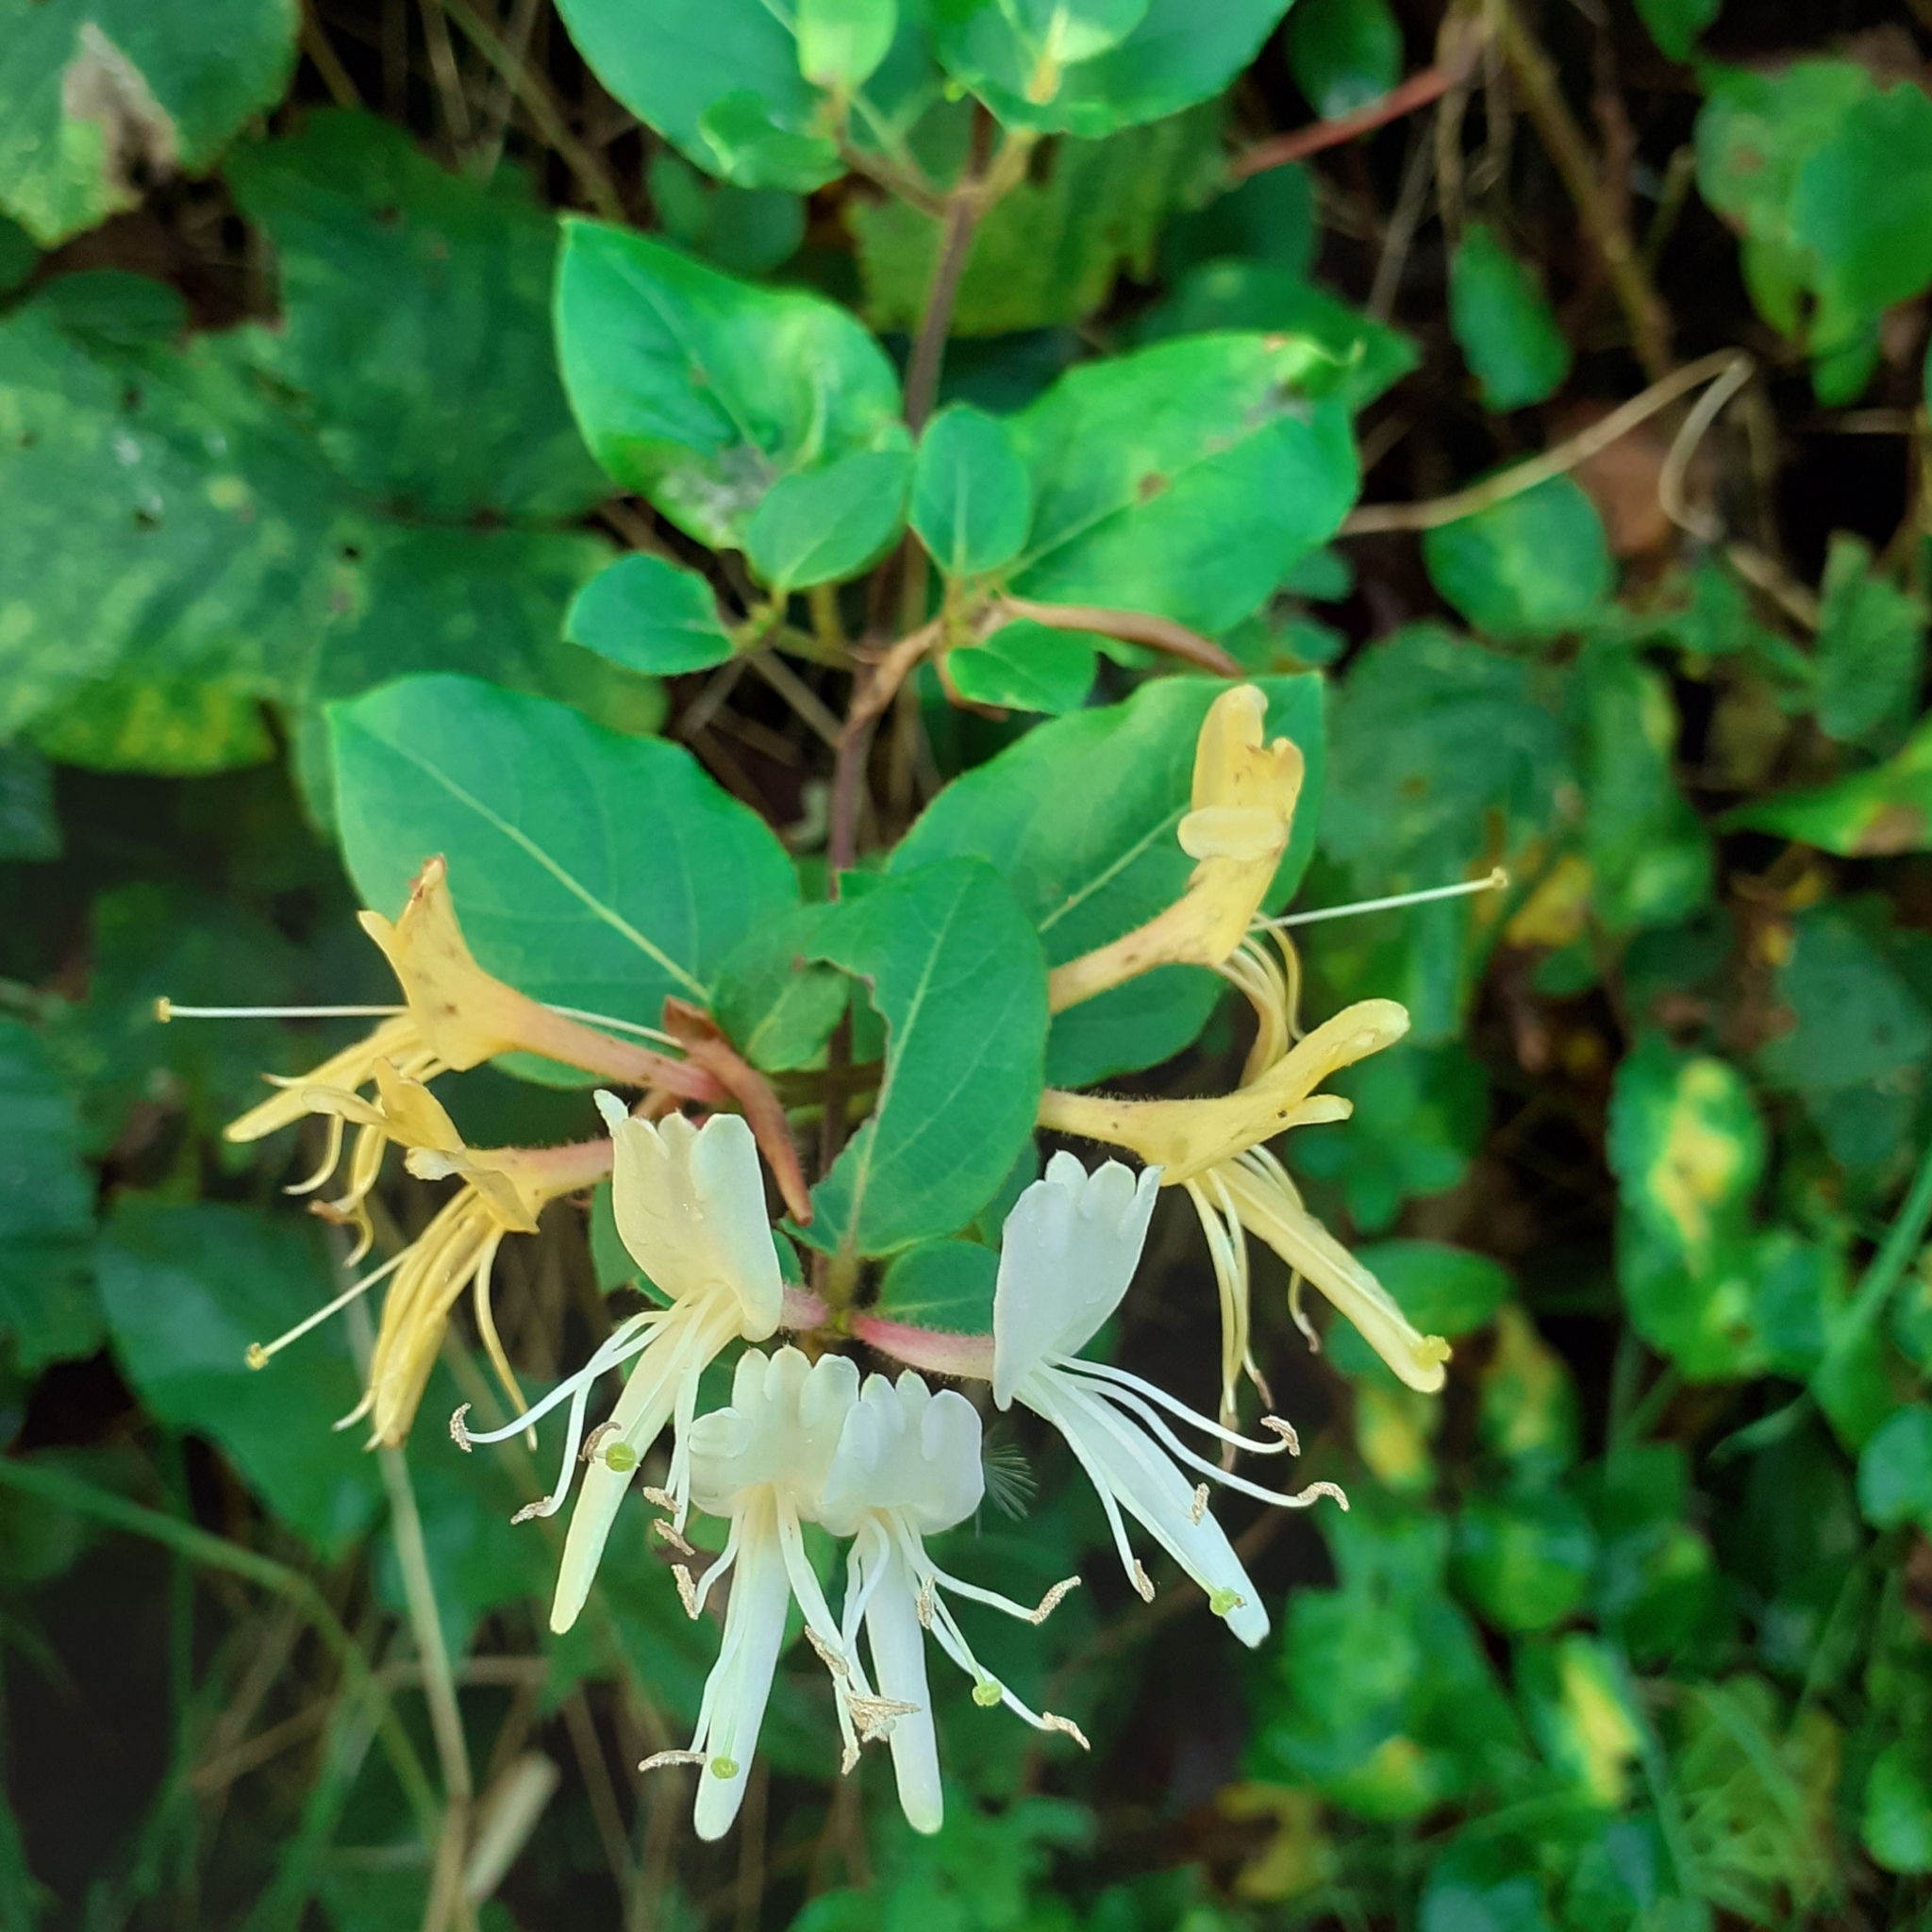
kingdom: Plantae
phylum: Tracheophyta
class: Magnoliopsida
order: Dipsacales
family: Caprifoliaceae
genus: Lonicera
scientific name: Lonicera japonica
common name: Japanese honeysuckle
